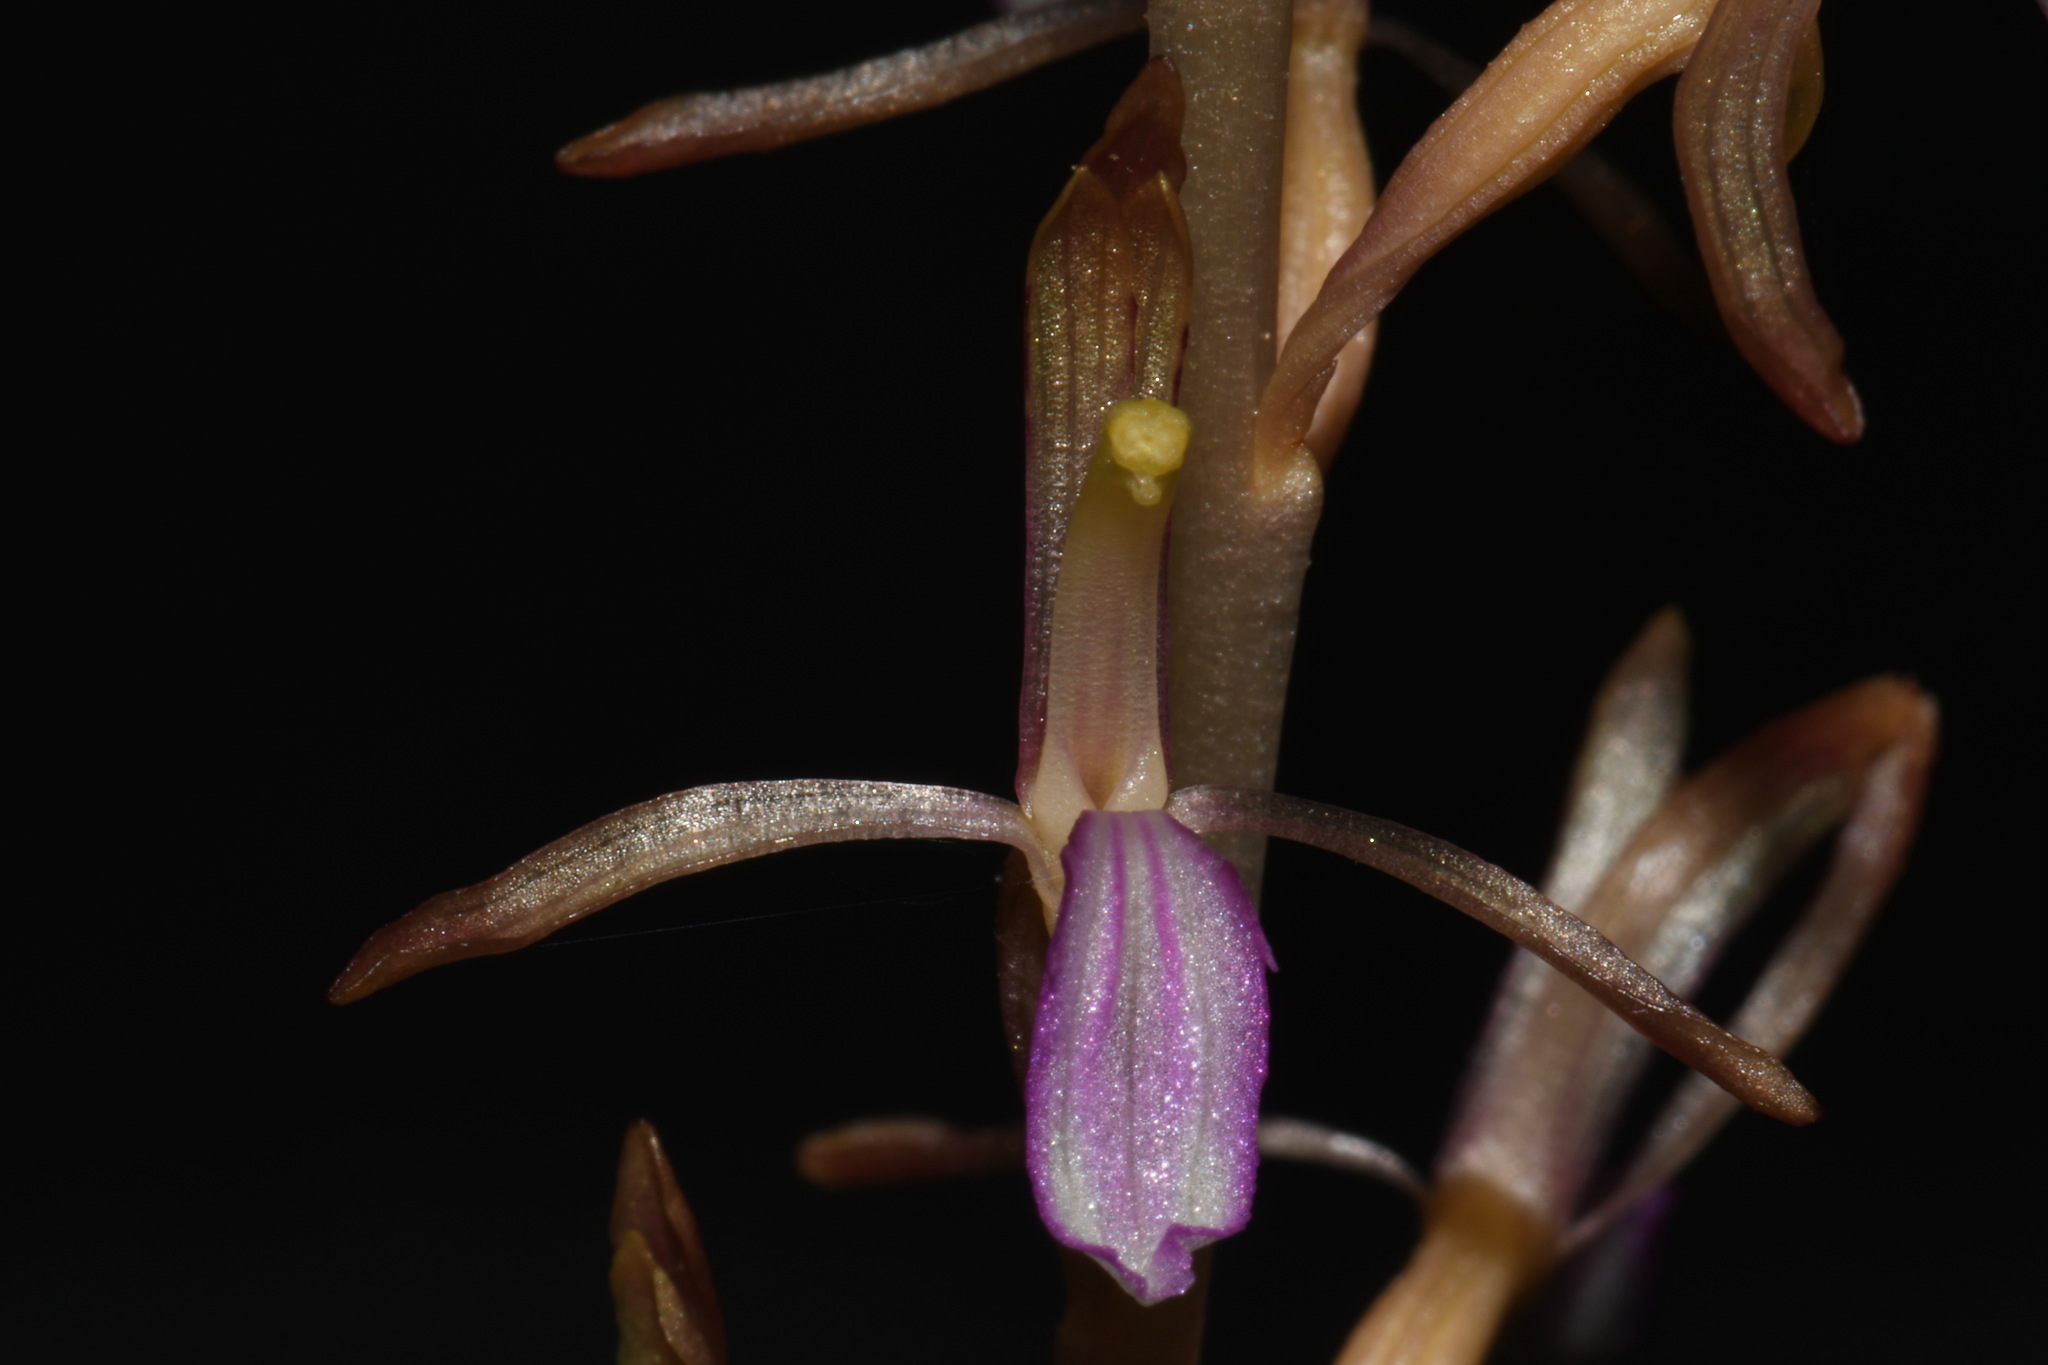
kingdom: Plantae
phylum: Tracheophyta
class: Liliopsida
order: Asparagales
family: Orchidaceae
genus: Corallorhiza
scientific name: Corallorhiza mertensiana
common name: Pacific coralroot
